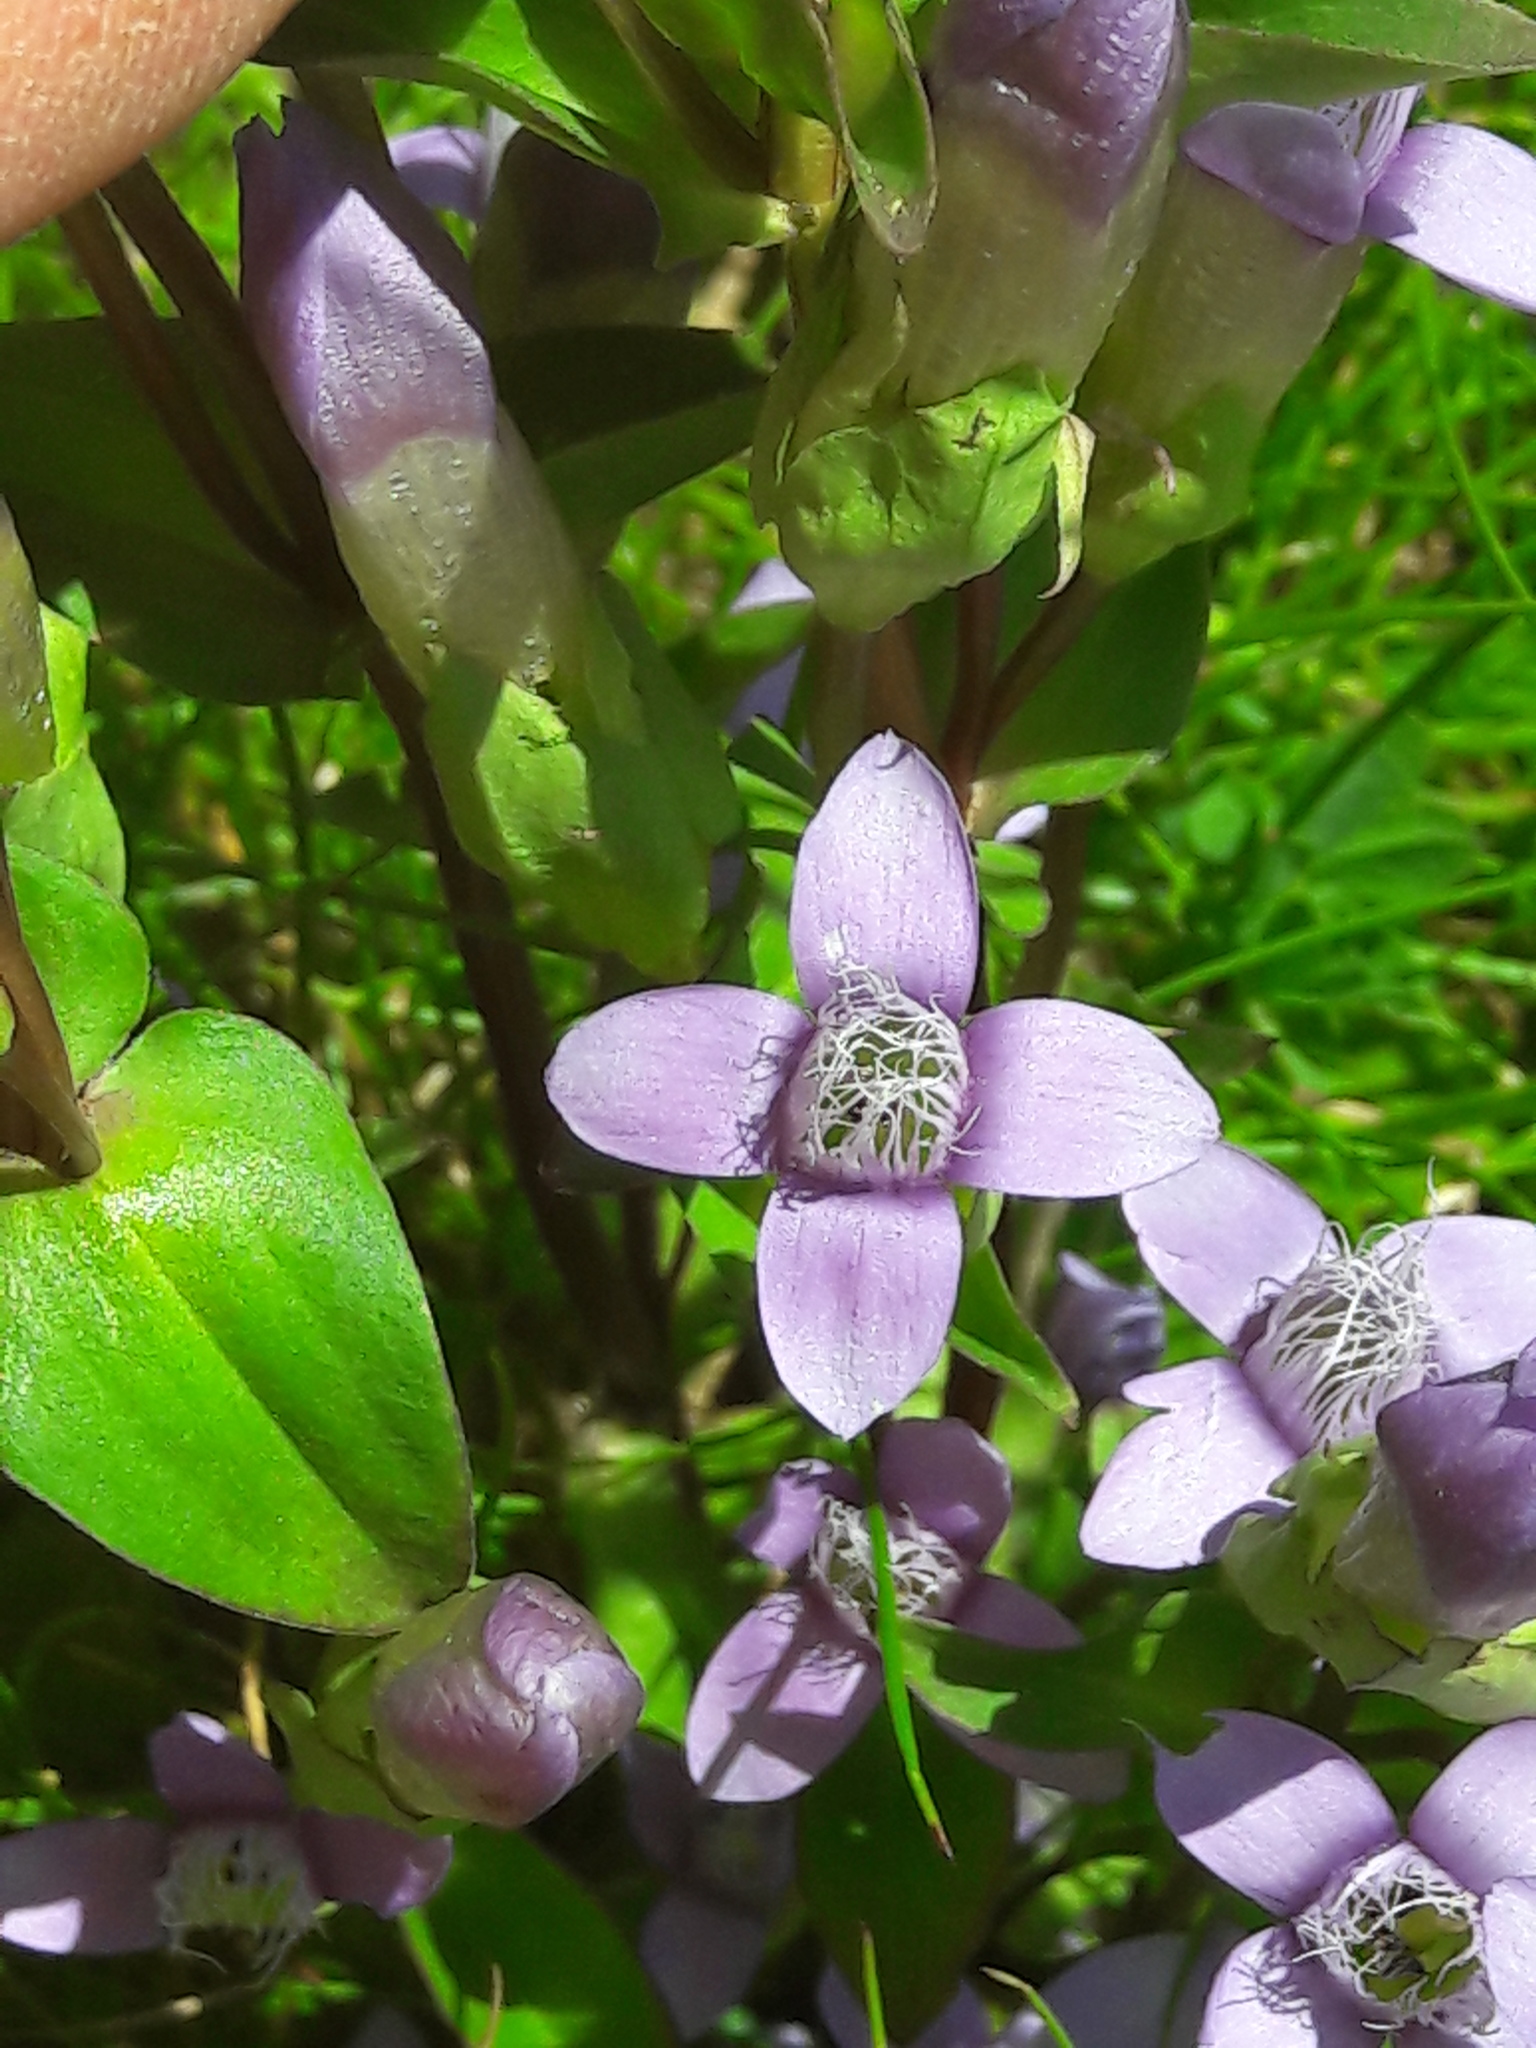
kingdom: Plantae
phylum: Tracheophyta
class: Magnoliopsida
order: Gentianales
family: Gentianaceae
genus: Gentianella
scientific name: Gentianella campestris
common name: Field gentian
